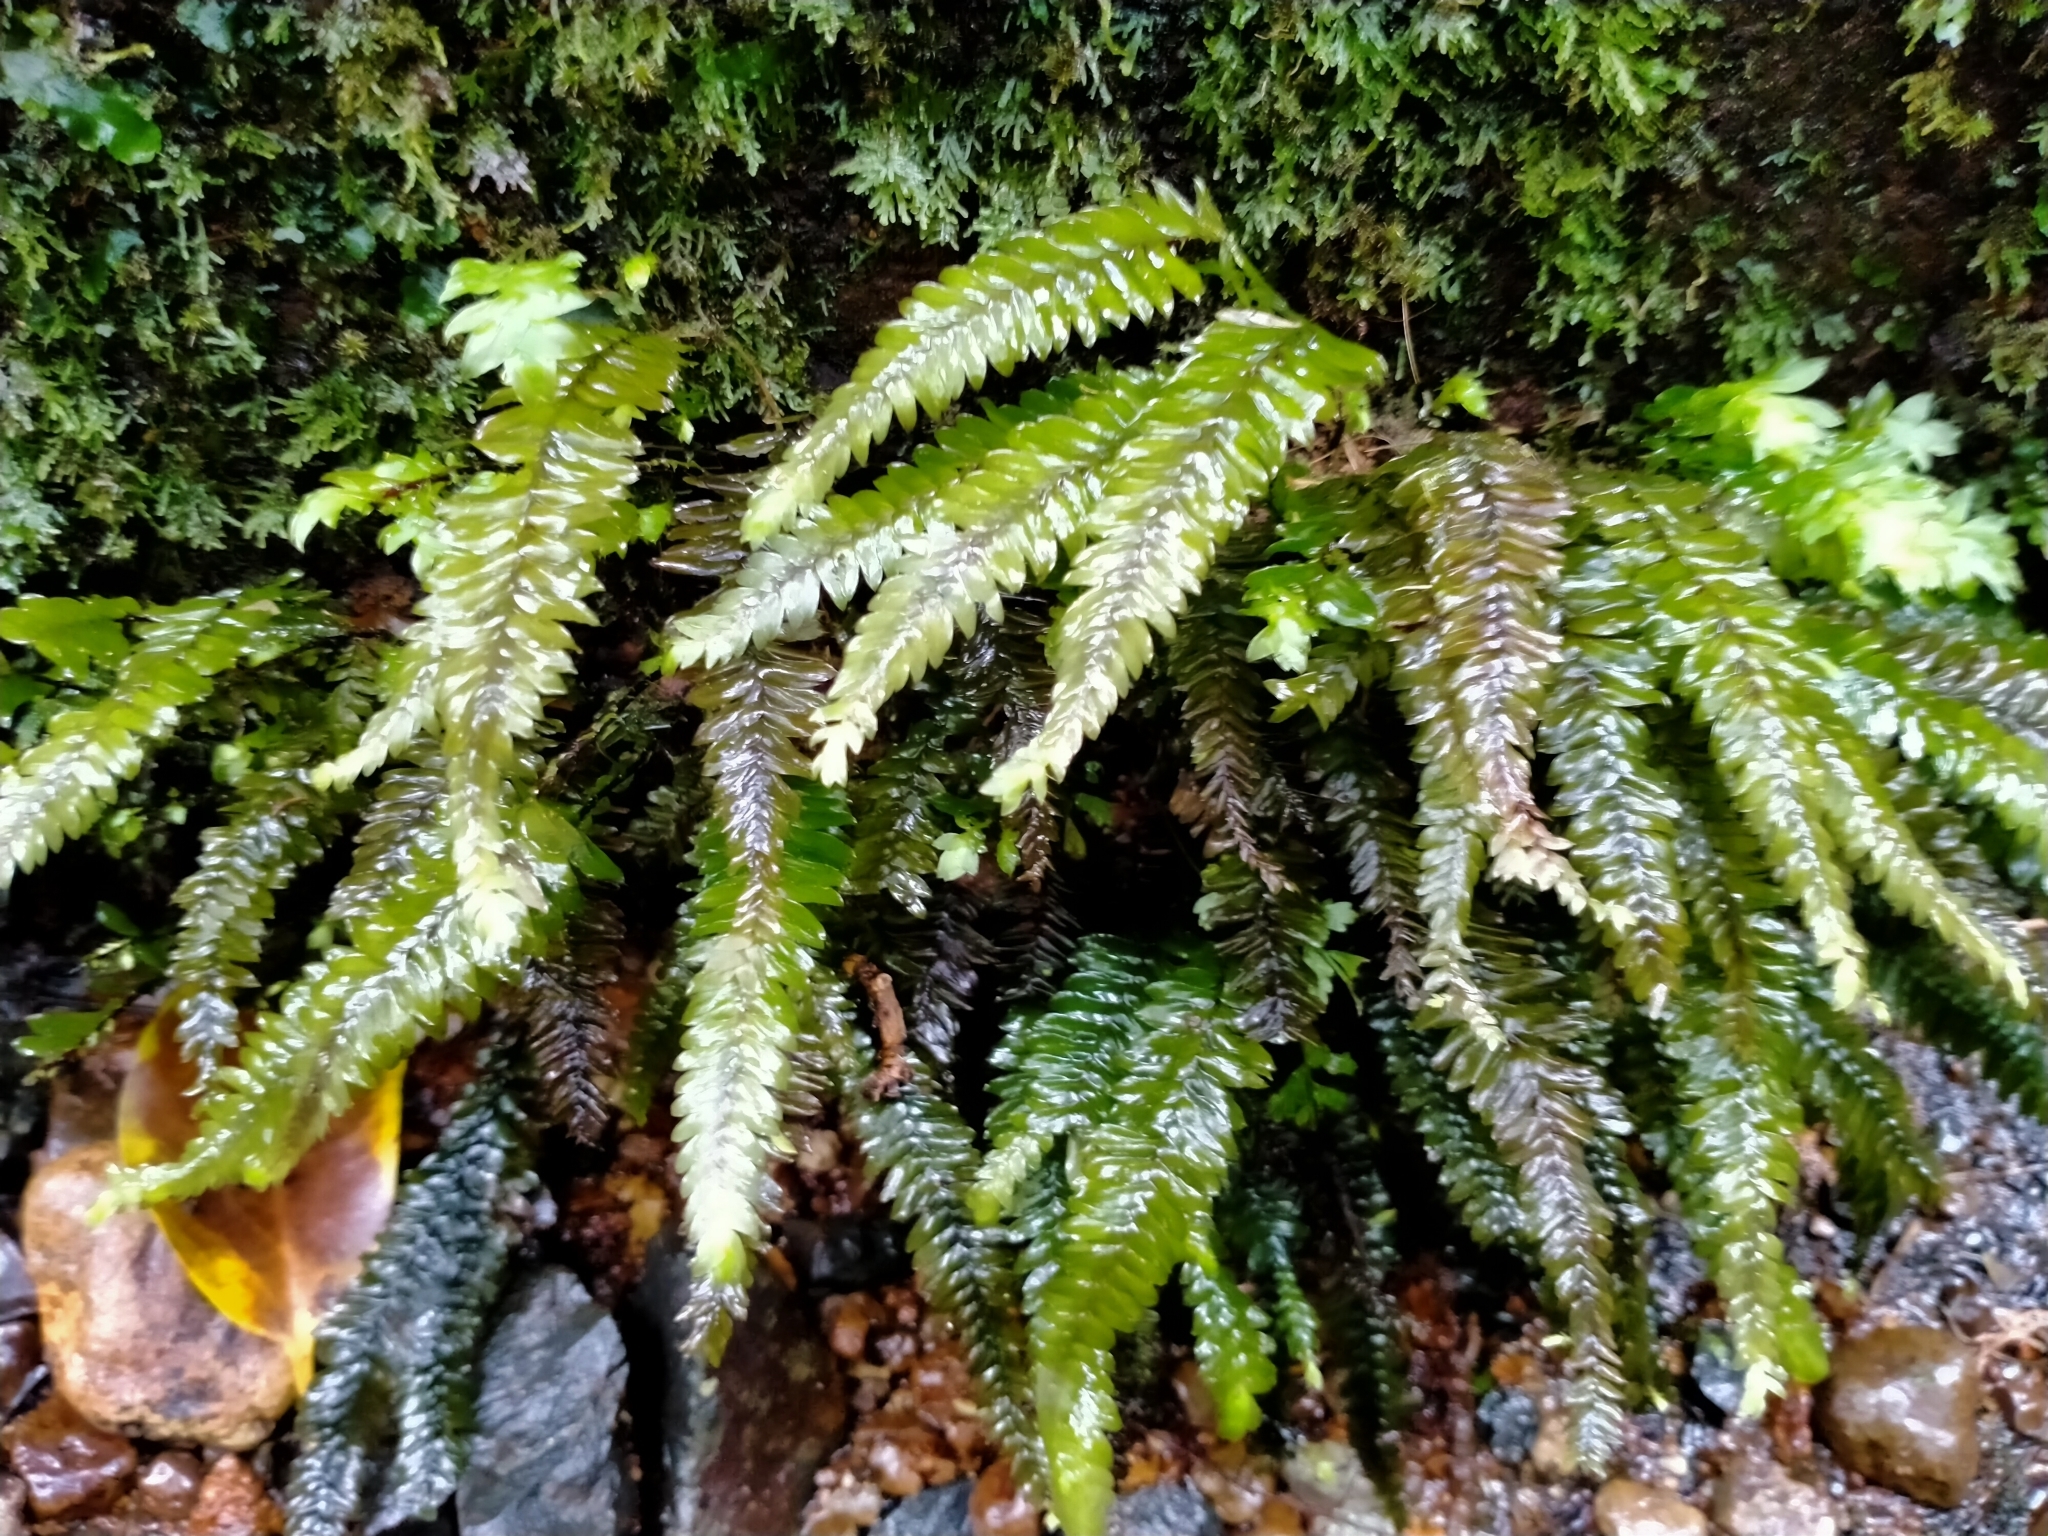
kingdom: Plantae
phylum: Bryophyta
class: Bryopsida
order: Hypopterygiales
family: Hypopterygiaceae
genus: Cyathophorum
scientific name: Cyathophorum bulbosum
